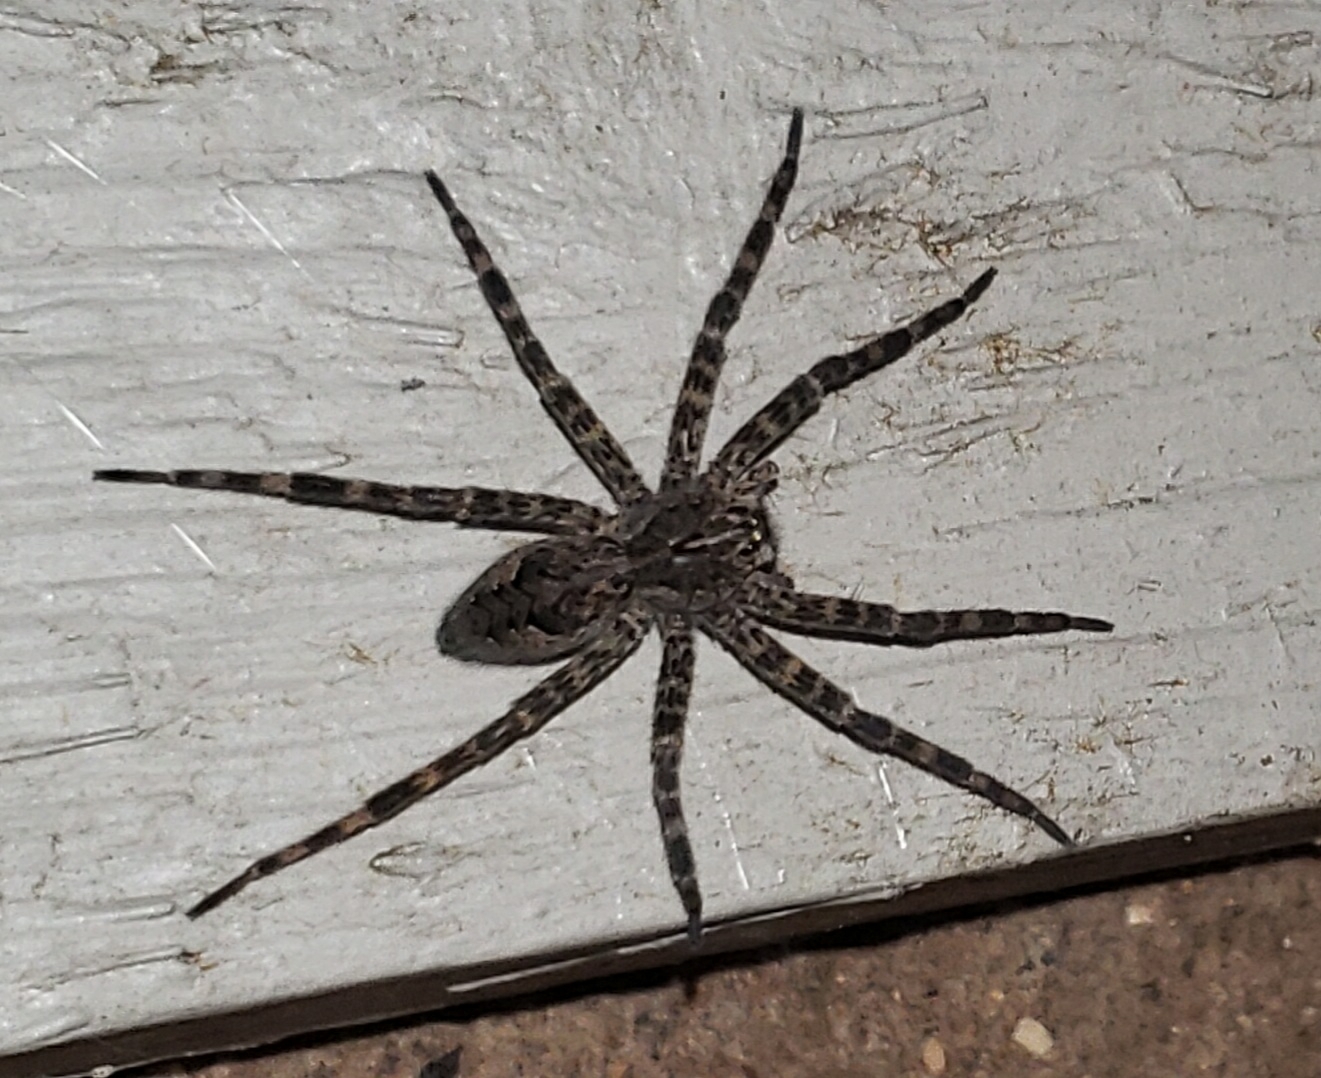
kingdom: Animalia
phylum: Arthropoda
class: Arachnida
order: Araneae
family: Pisauridae
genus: Dolomedes
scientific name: Dolomedes tenebrosus
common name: Dark fishing spider
